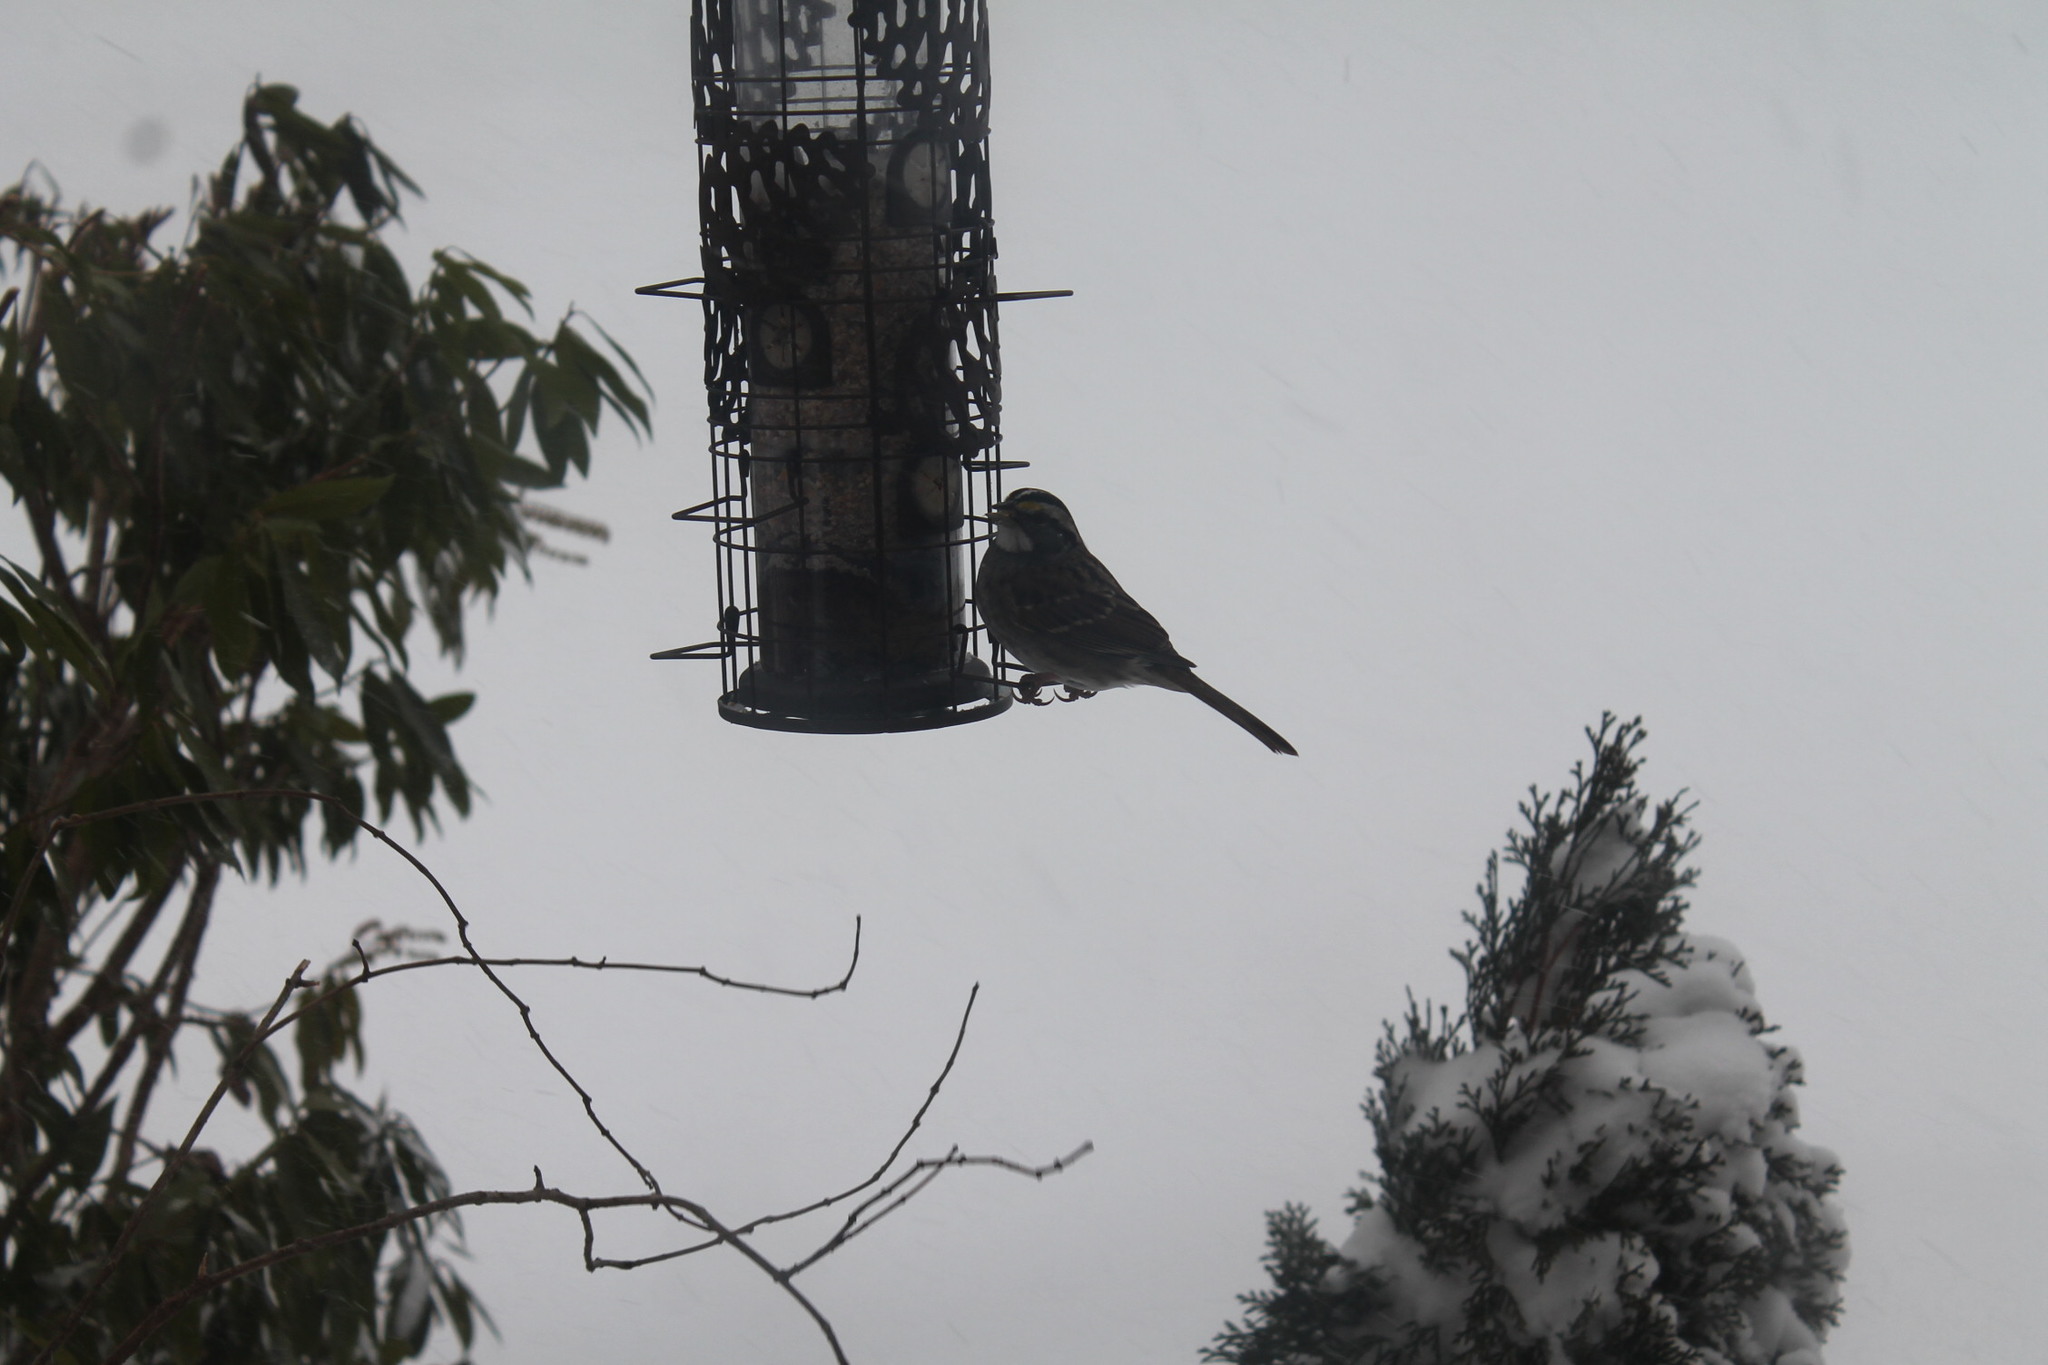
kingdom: Animalia
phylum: Chordata
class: Aves
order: Passeriformes
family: Passerellidae
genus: Zonotrichia
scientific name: Zonotrichia albicollis
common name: White-throated sparrow
